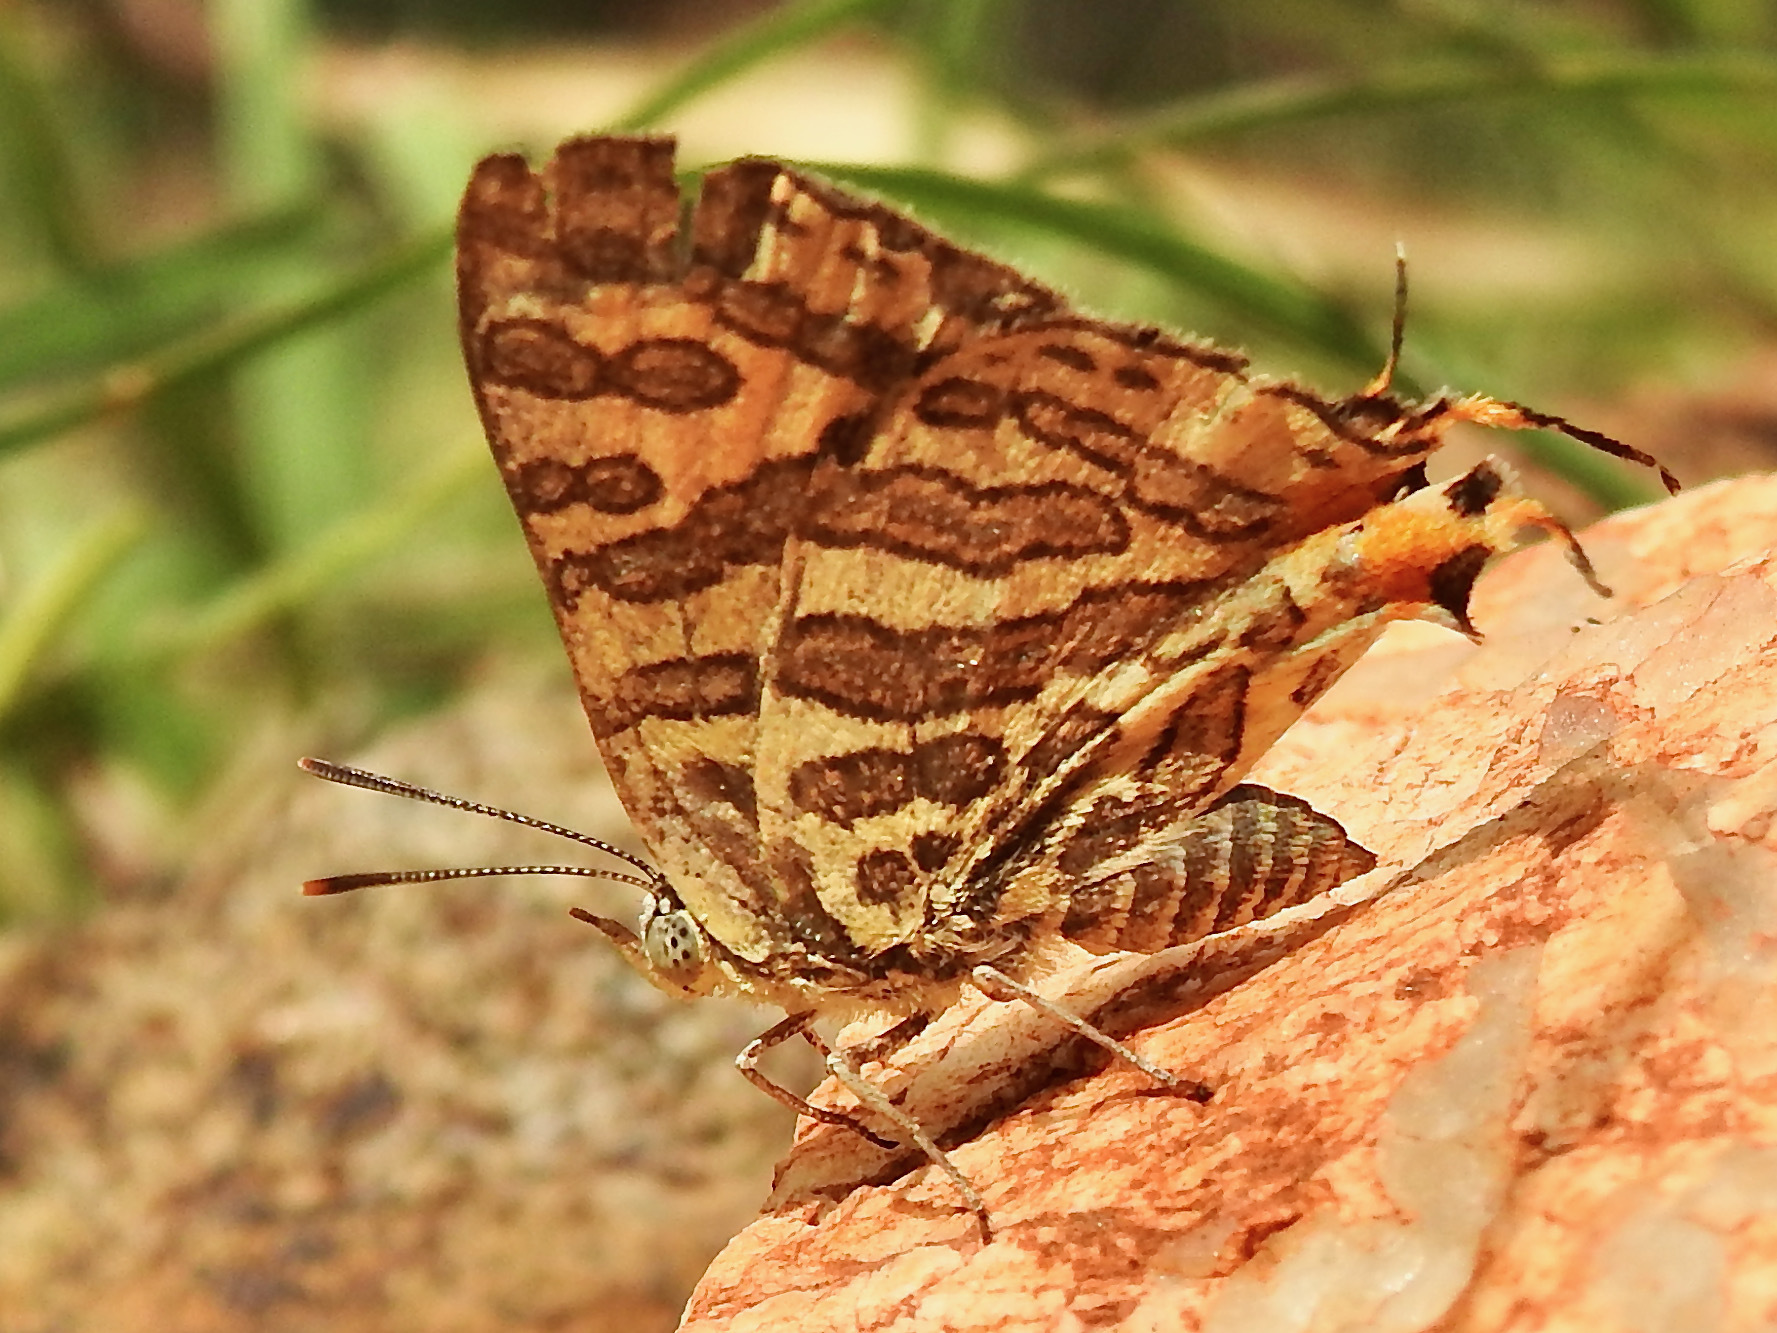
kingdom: Animalia
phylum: Arthropoda
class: Insecta
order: Lepidoptera
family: Lycaenidae
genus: Cigaritis
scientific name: Cigaritis
